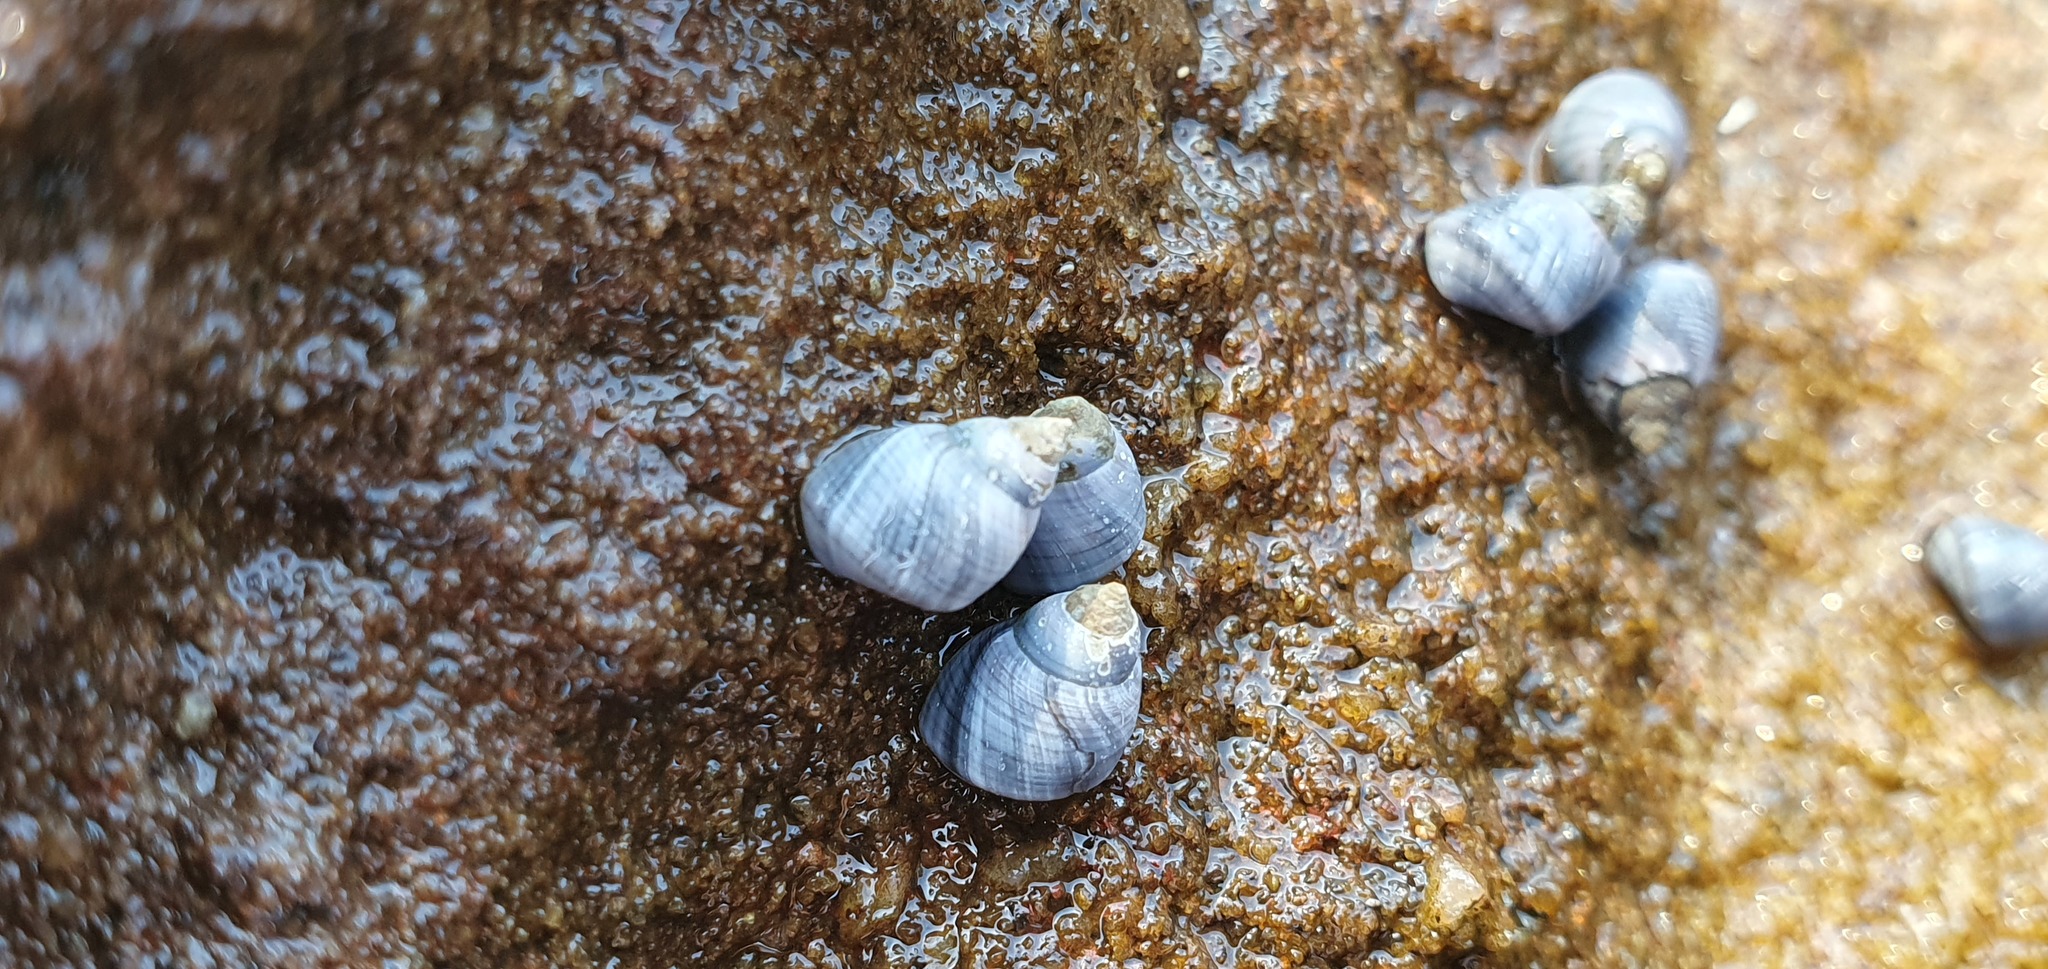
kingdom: Animalia
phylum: Mollusca
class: Gastropoda
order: Littorinimorpha
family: Littorinidae
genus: Austrolittorina
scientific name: Austrolittorina unifasciata
